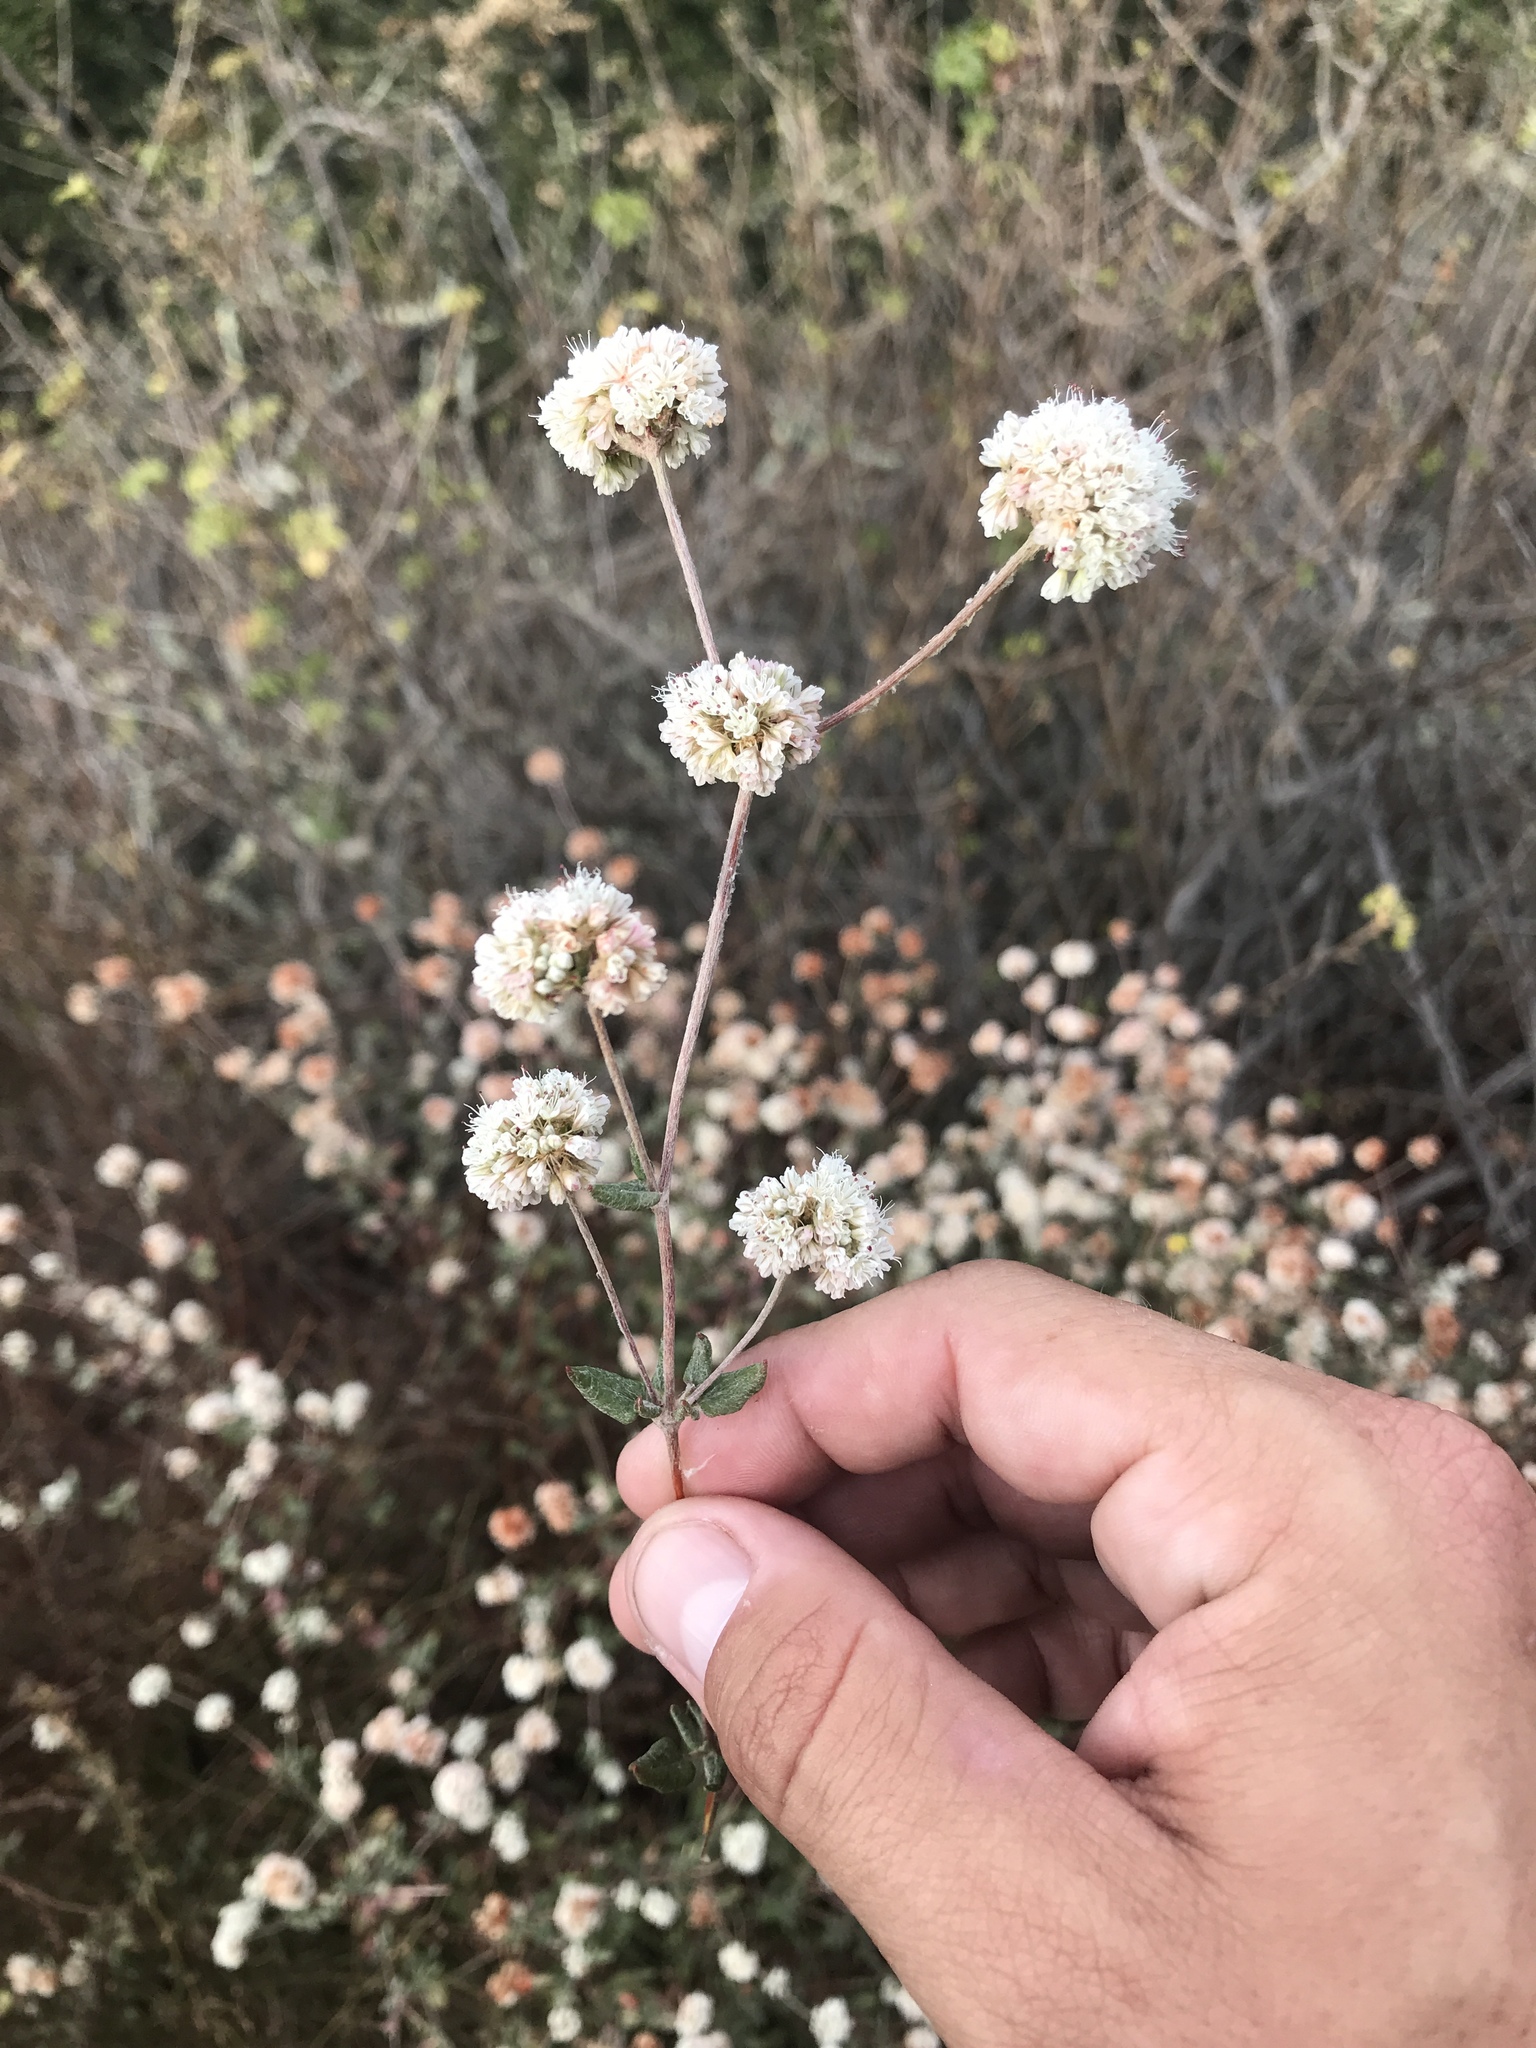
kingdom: Plantae
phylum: Tracheophyta
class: Magnoliopsida
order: Caryophyllales
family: Polygonaceae
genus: Eriogonum
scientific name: Eriogonum parvifolium
